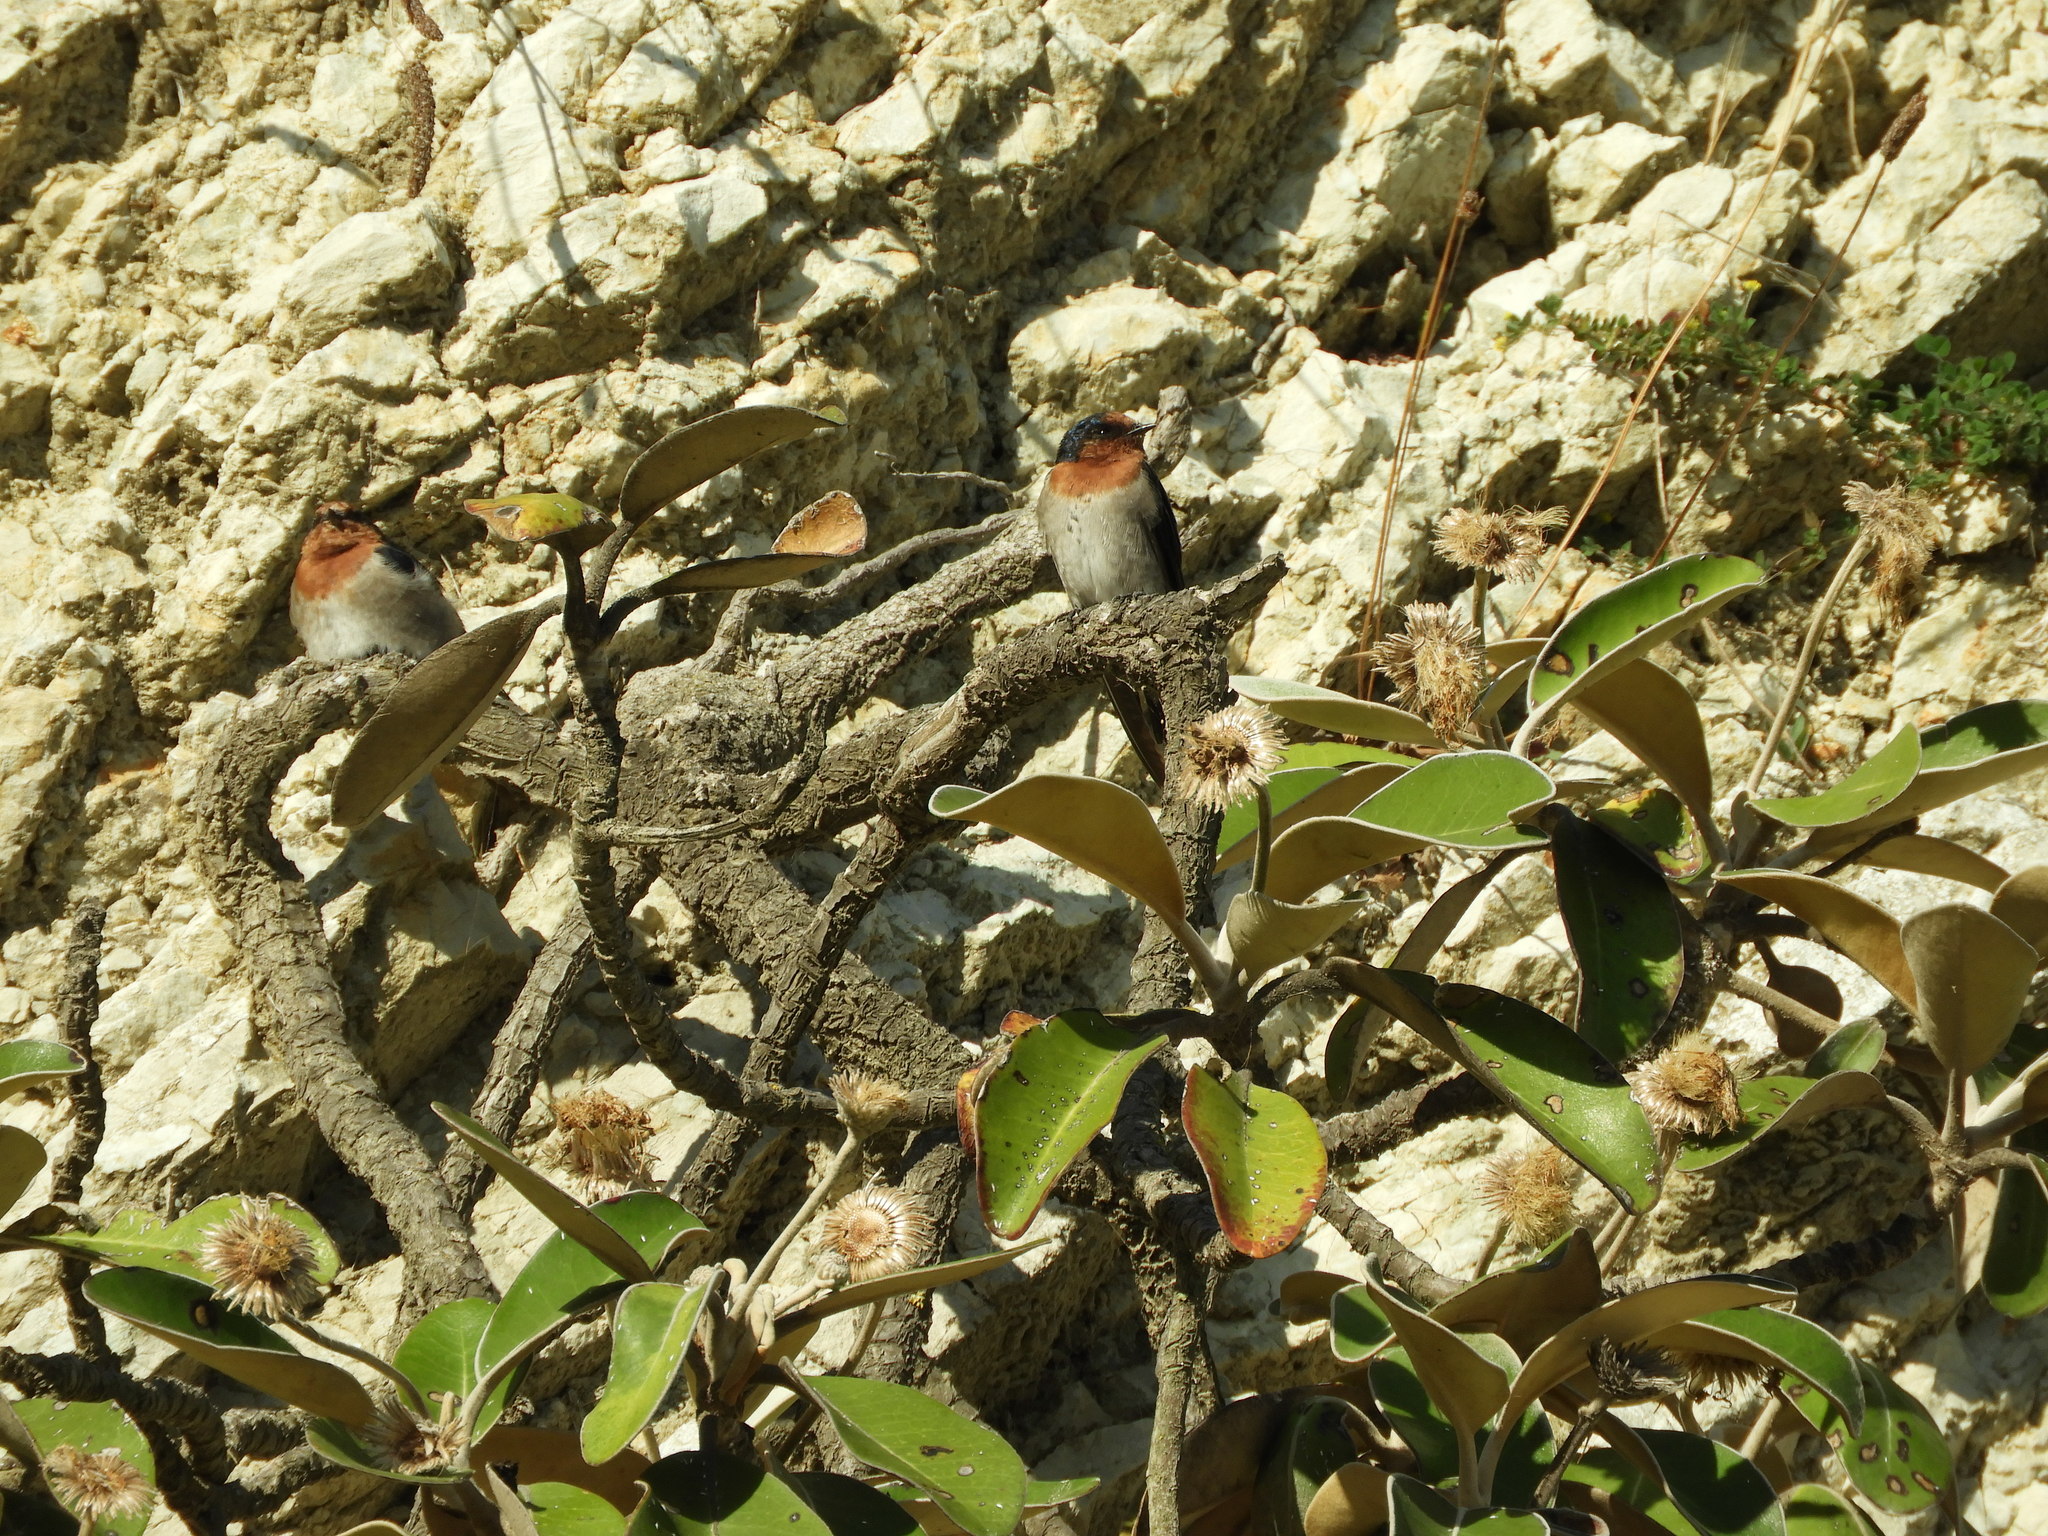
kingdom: Animalia
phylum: Chordata
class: Aves
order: Passeriformes
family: Hirundinidae
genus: Hirundo
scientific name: Hirundo neoxena
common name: Welcome swallow
